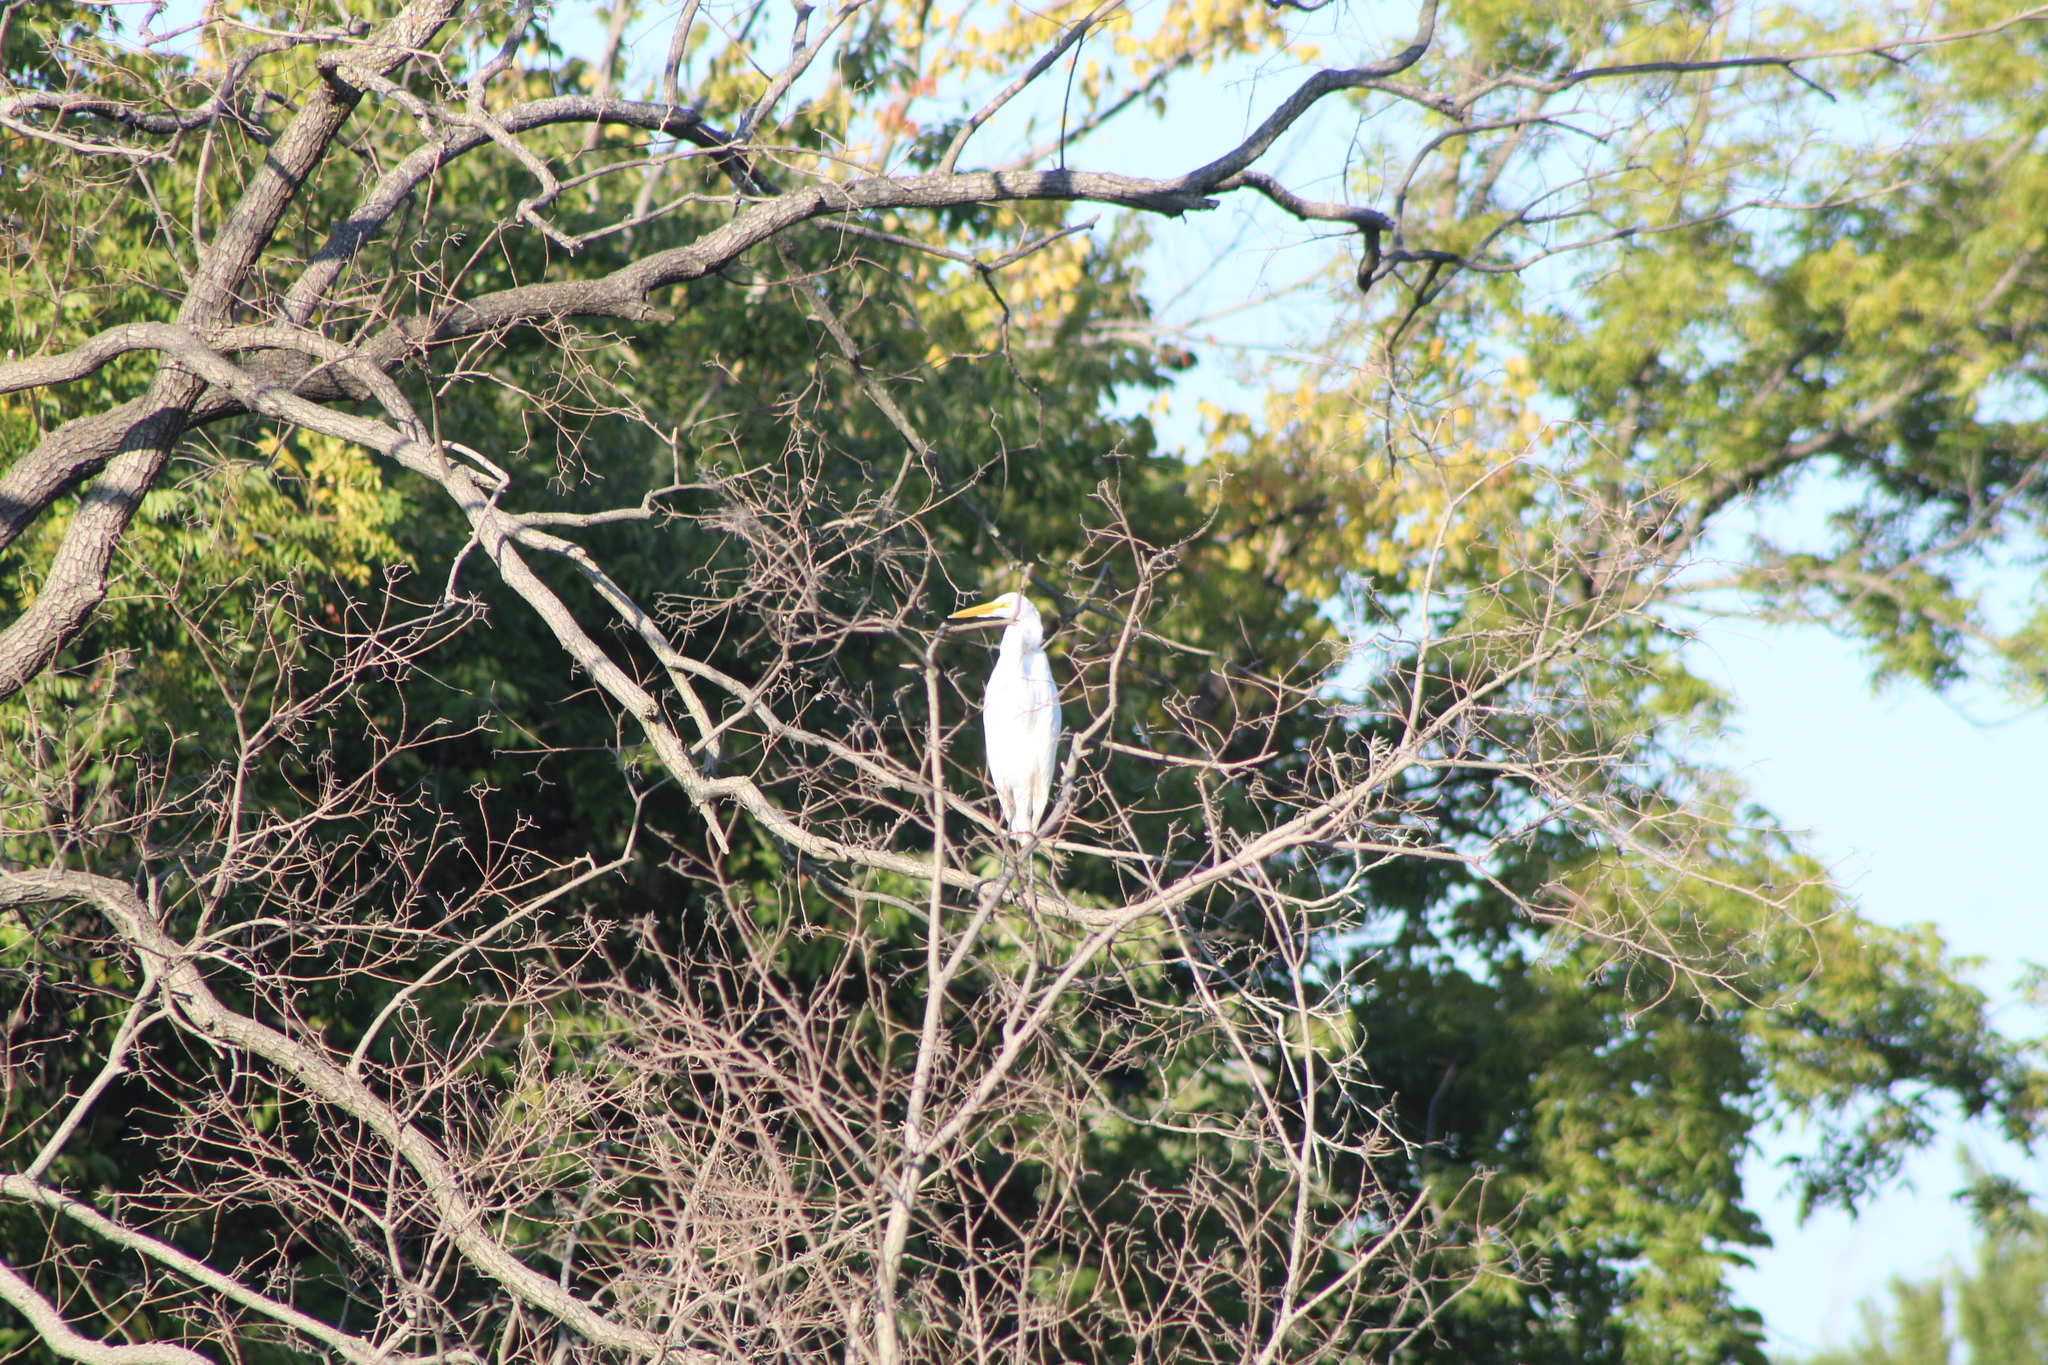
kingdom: Animalia
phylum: Chordata
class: Aves
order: Pelecaniformes
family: Ardeidae
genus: Ardea
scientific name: Ardea alba
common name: Great egret
